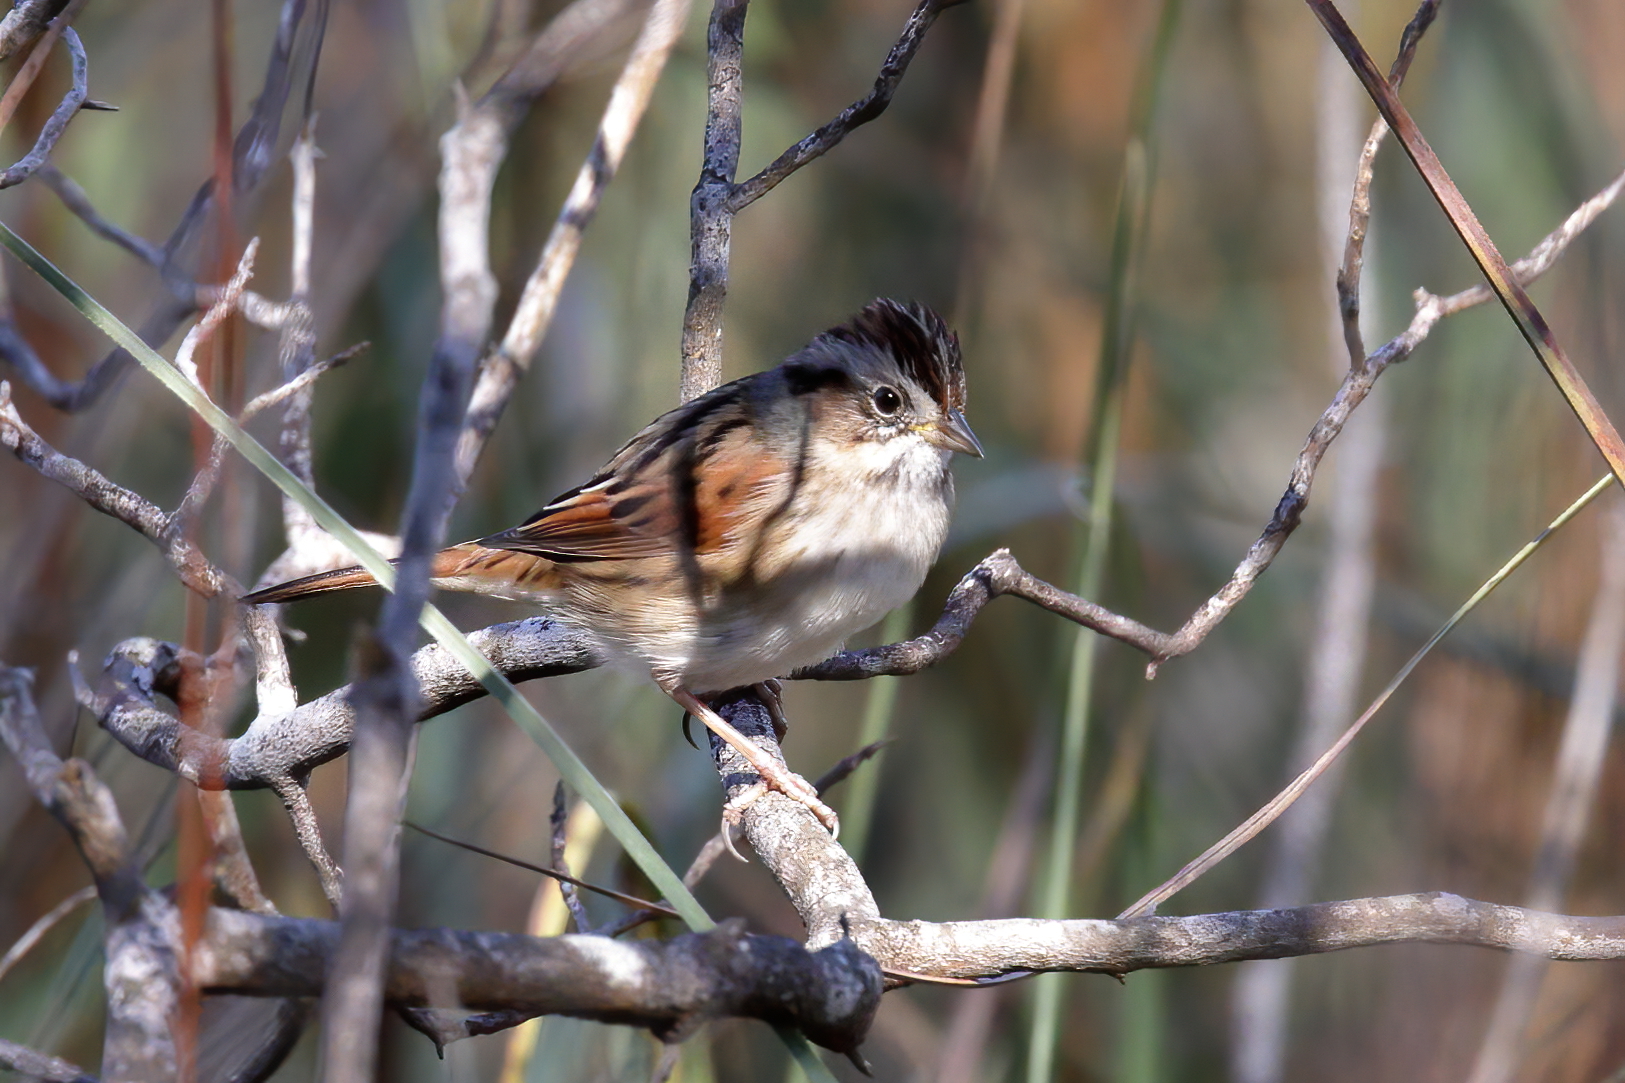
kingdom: Animalia
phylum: Chordata
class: Aves
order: Passeriformes
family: Passerellidae
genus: Melospiza
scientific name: Melospiza georgiana
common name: Swamp sparrow
